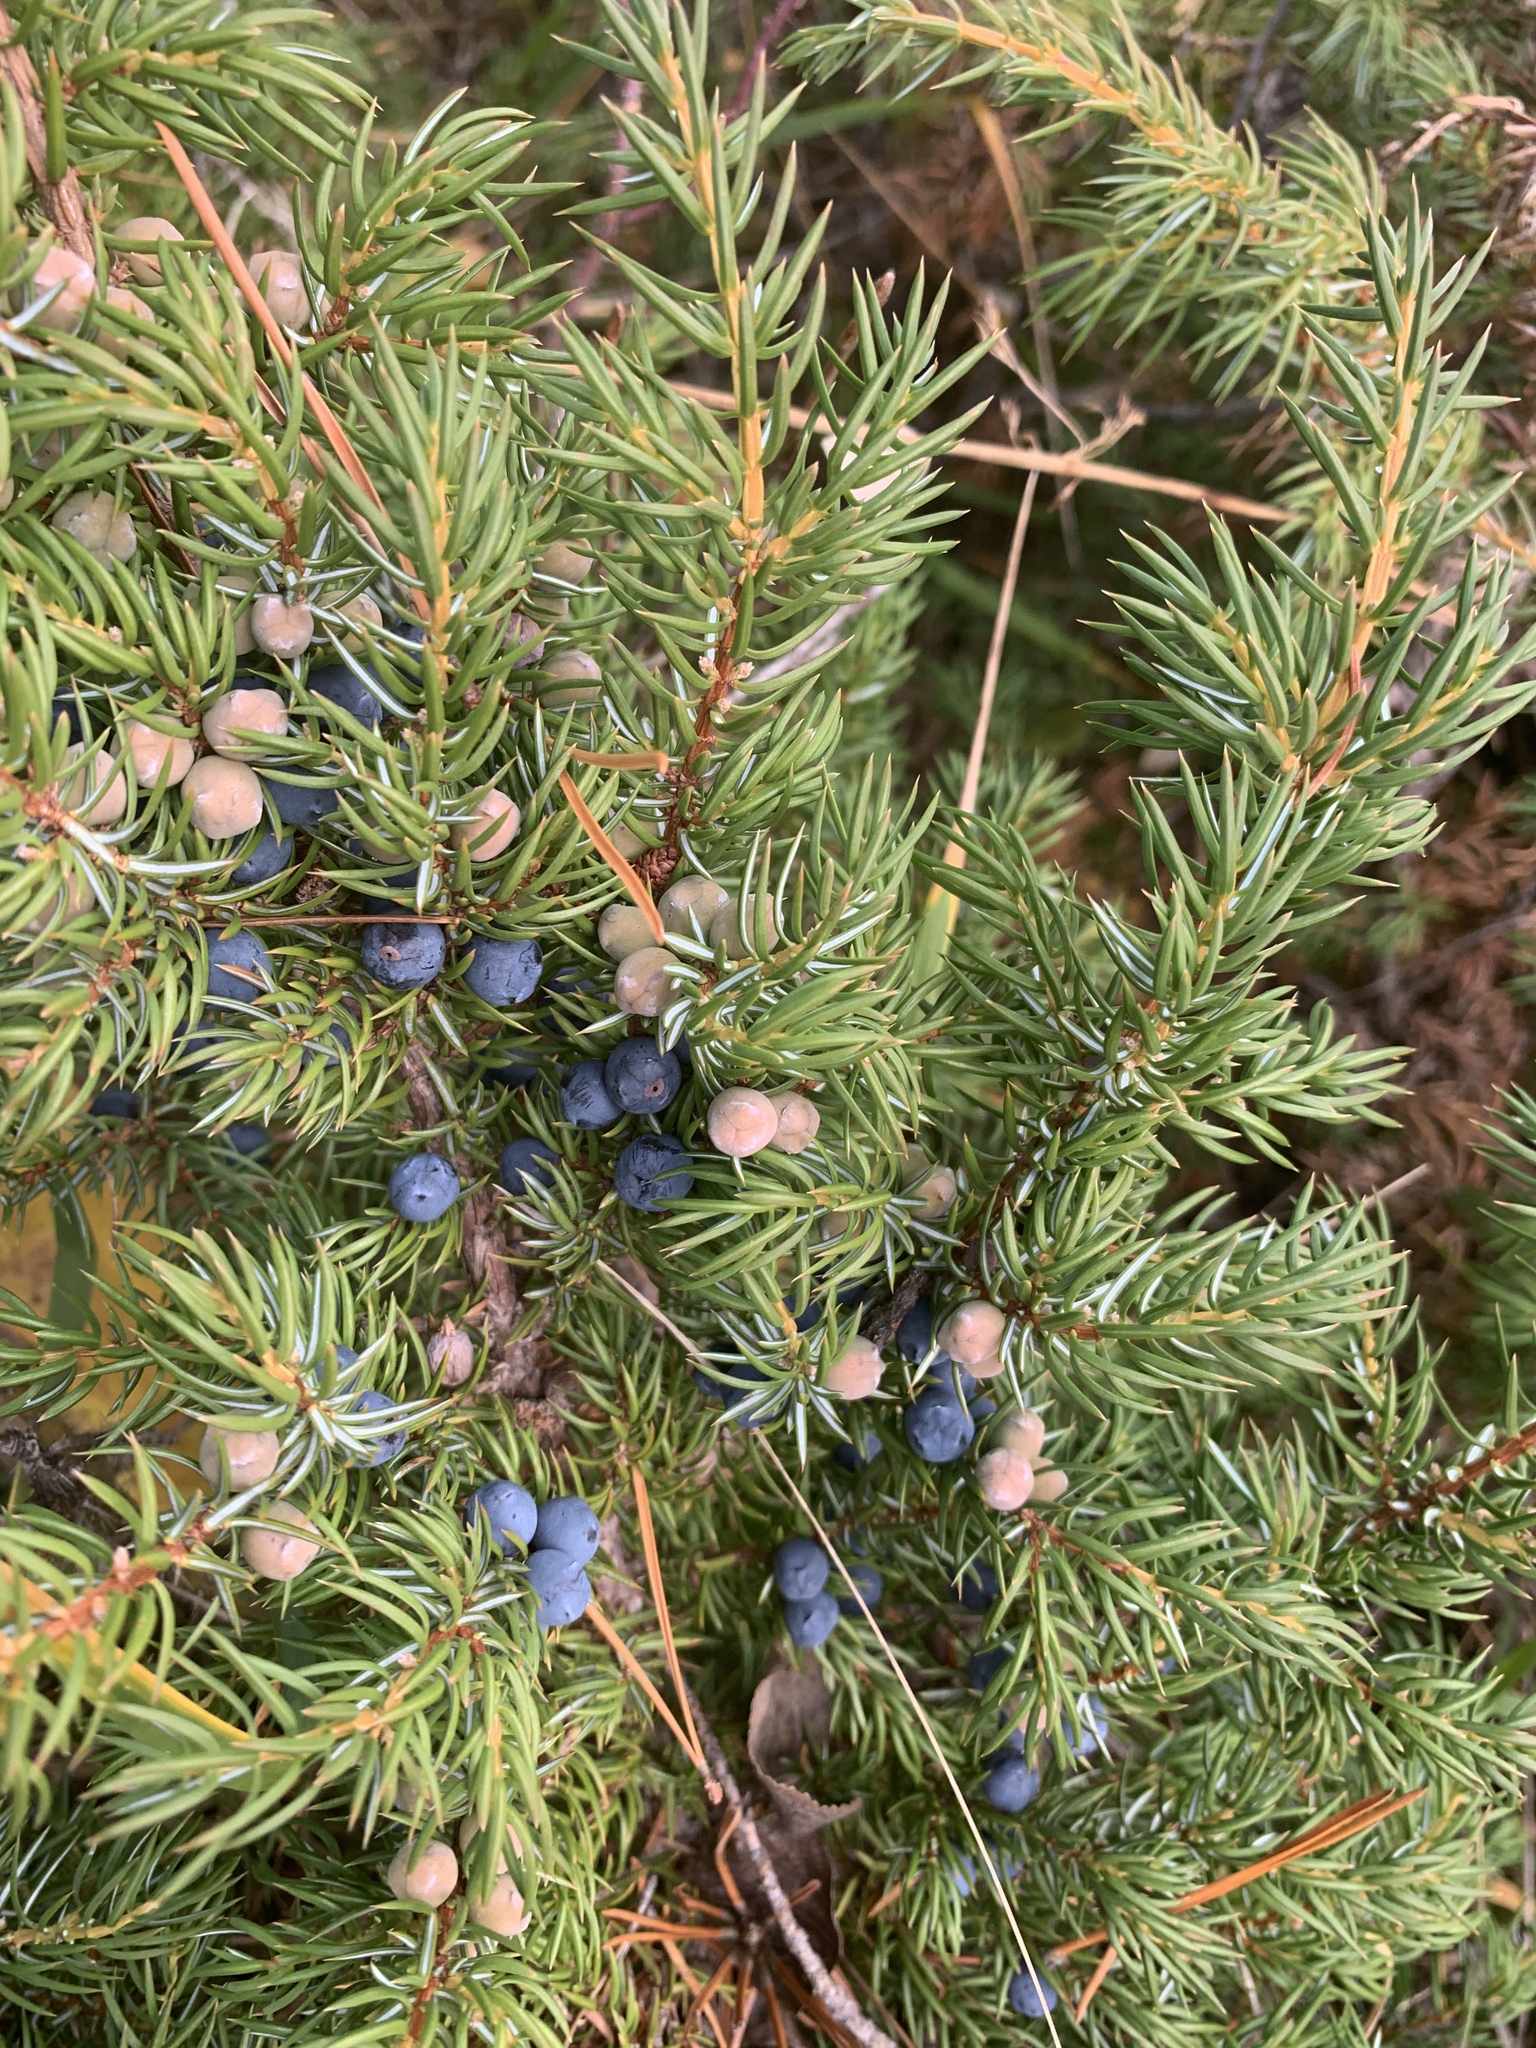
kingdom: Plantae
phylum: Tracheophyta
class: Pinopsida
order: Pinales
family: Cupressaceae
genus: Juniperus
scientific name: Juniperus communis
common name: Common juniper
